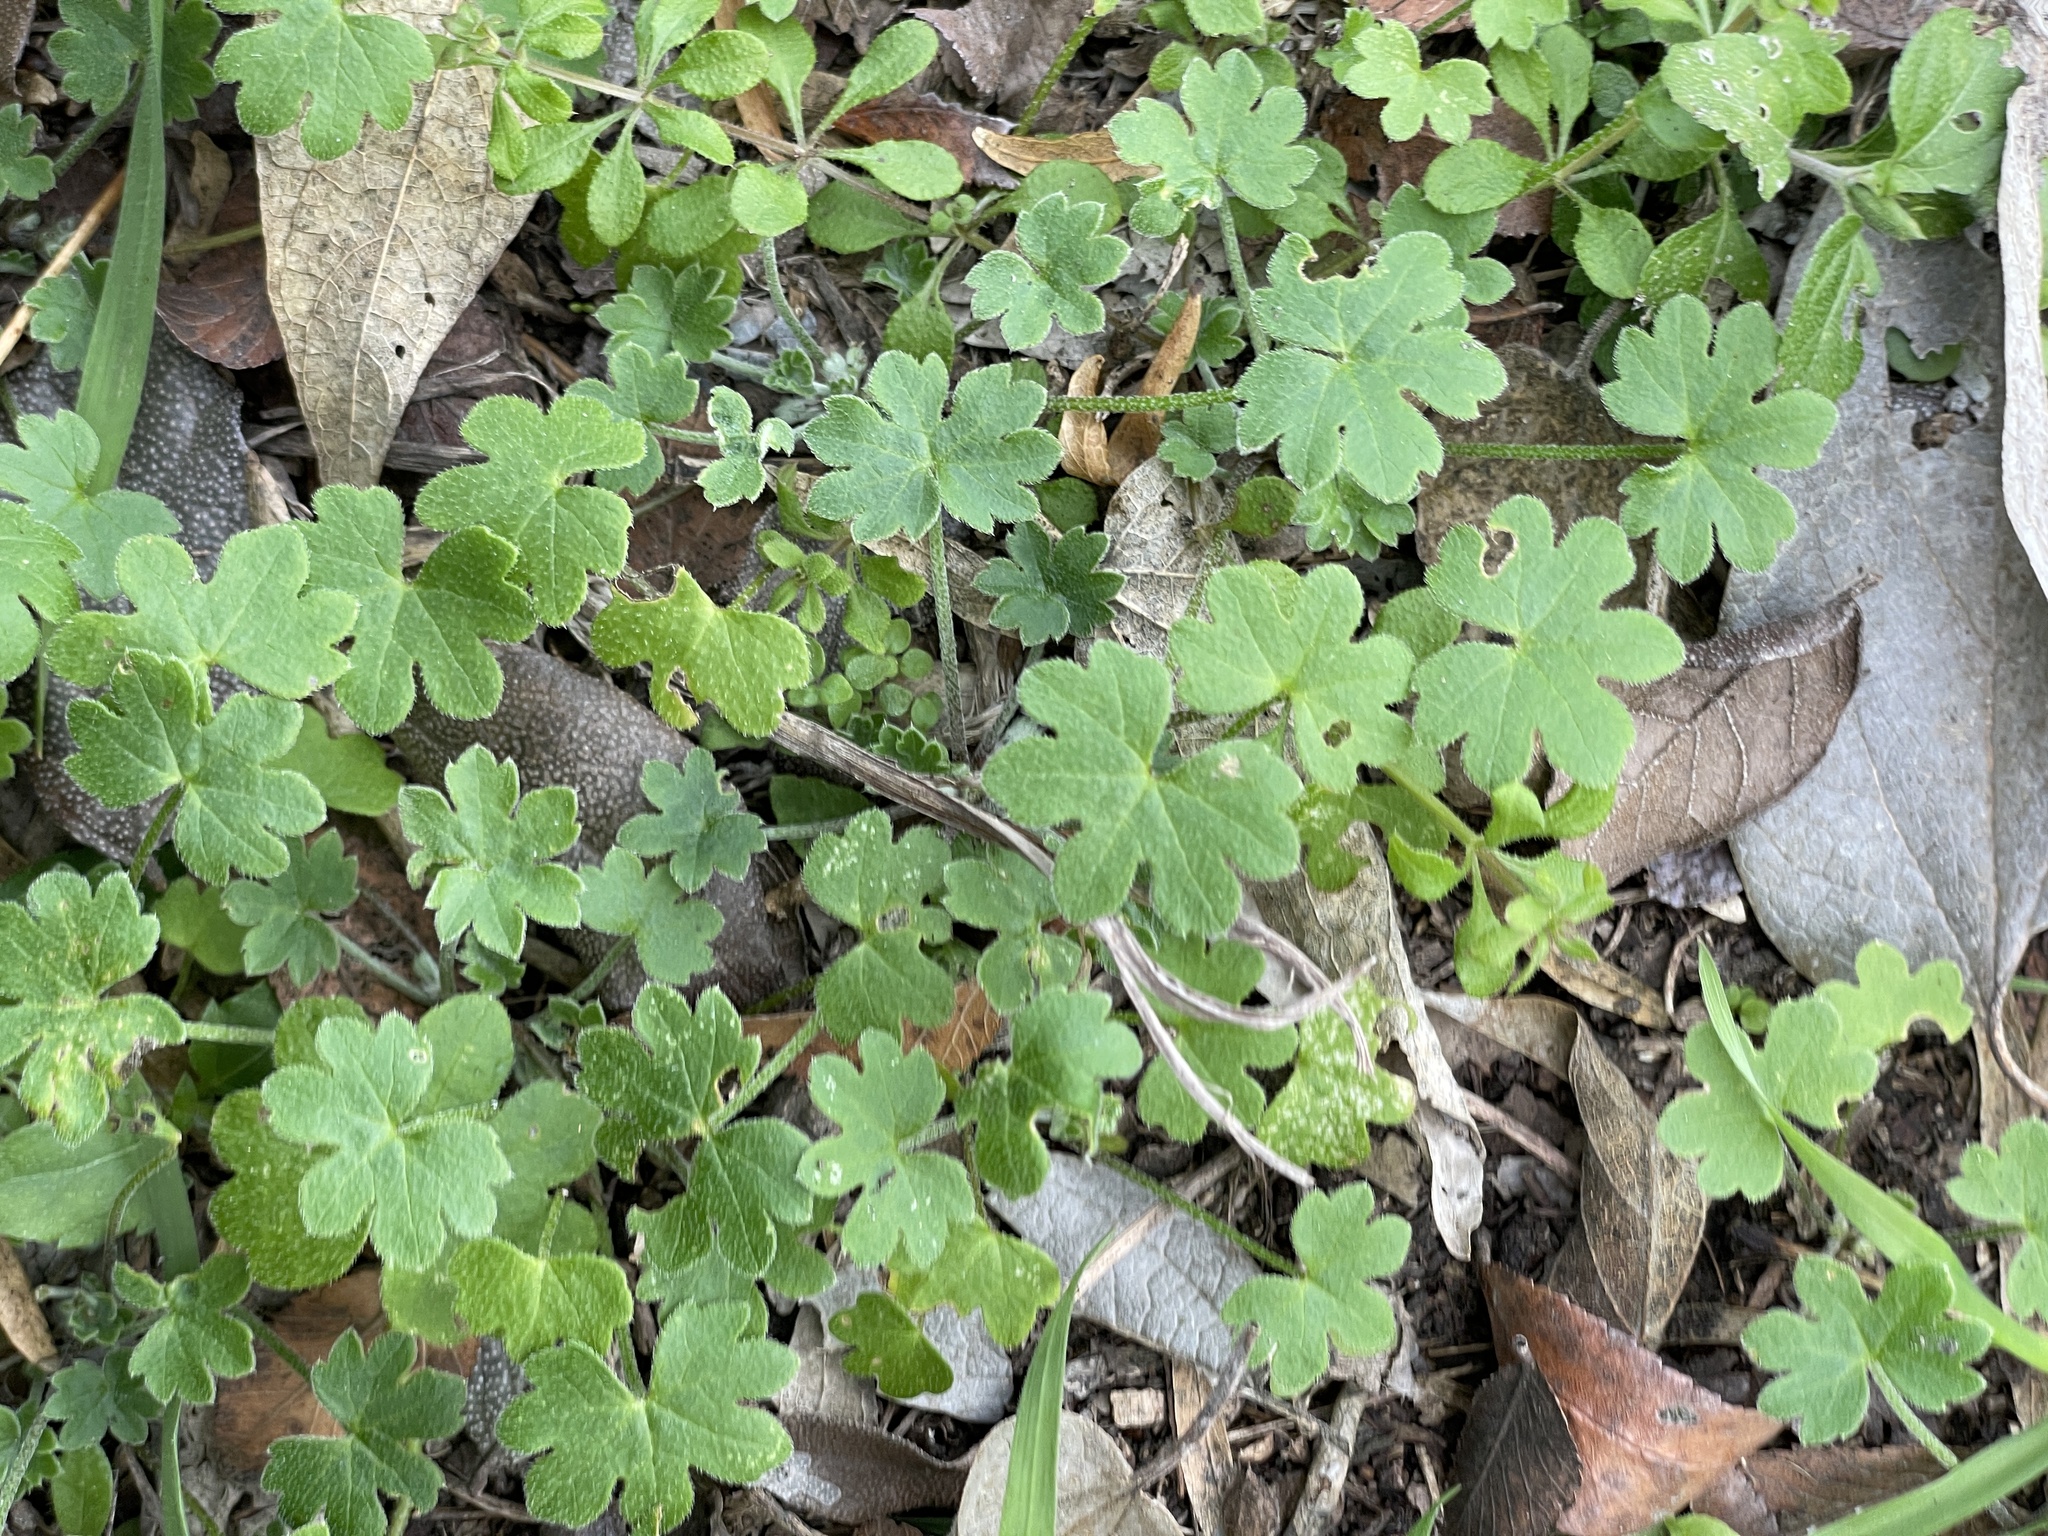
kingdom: Plantae
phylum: Tracheophyta
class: Magnoliopsida
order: Apiales
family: Apiaceae
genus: Bowlesia
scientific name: Bowlesia incana
